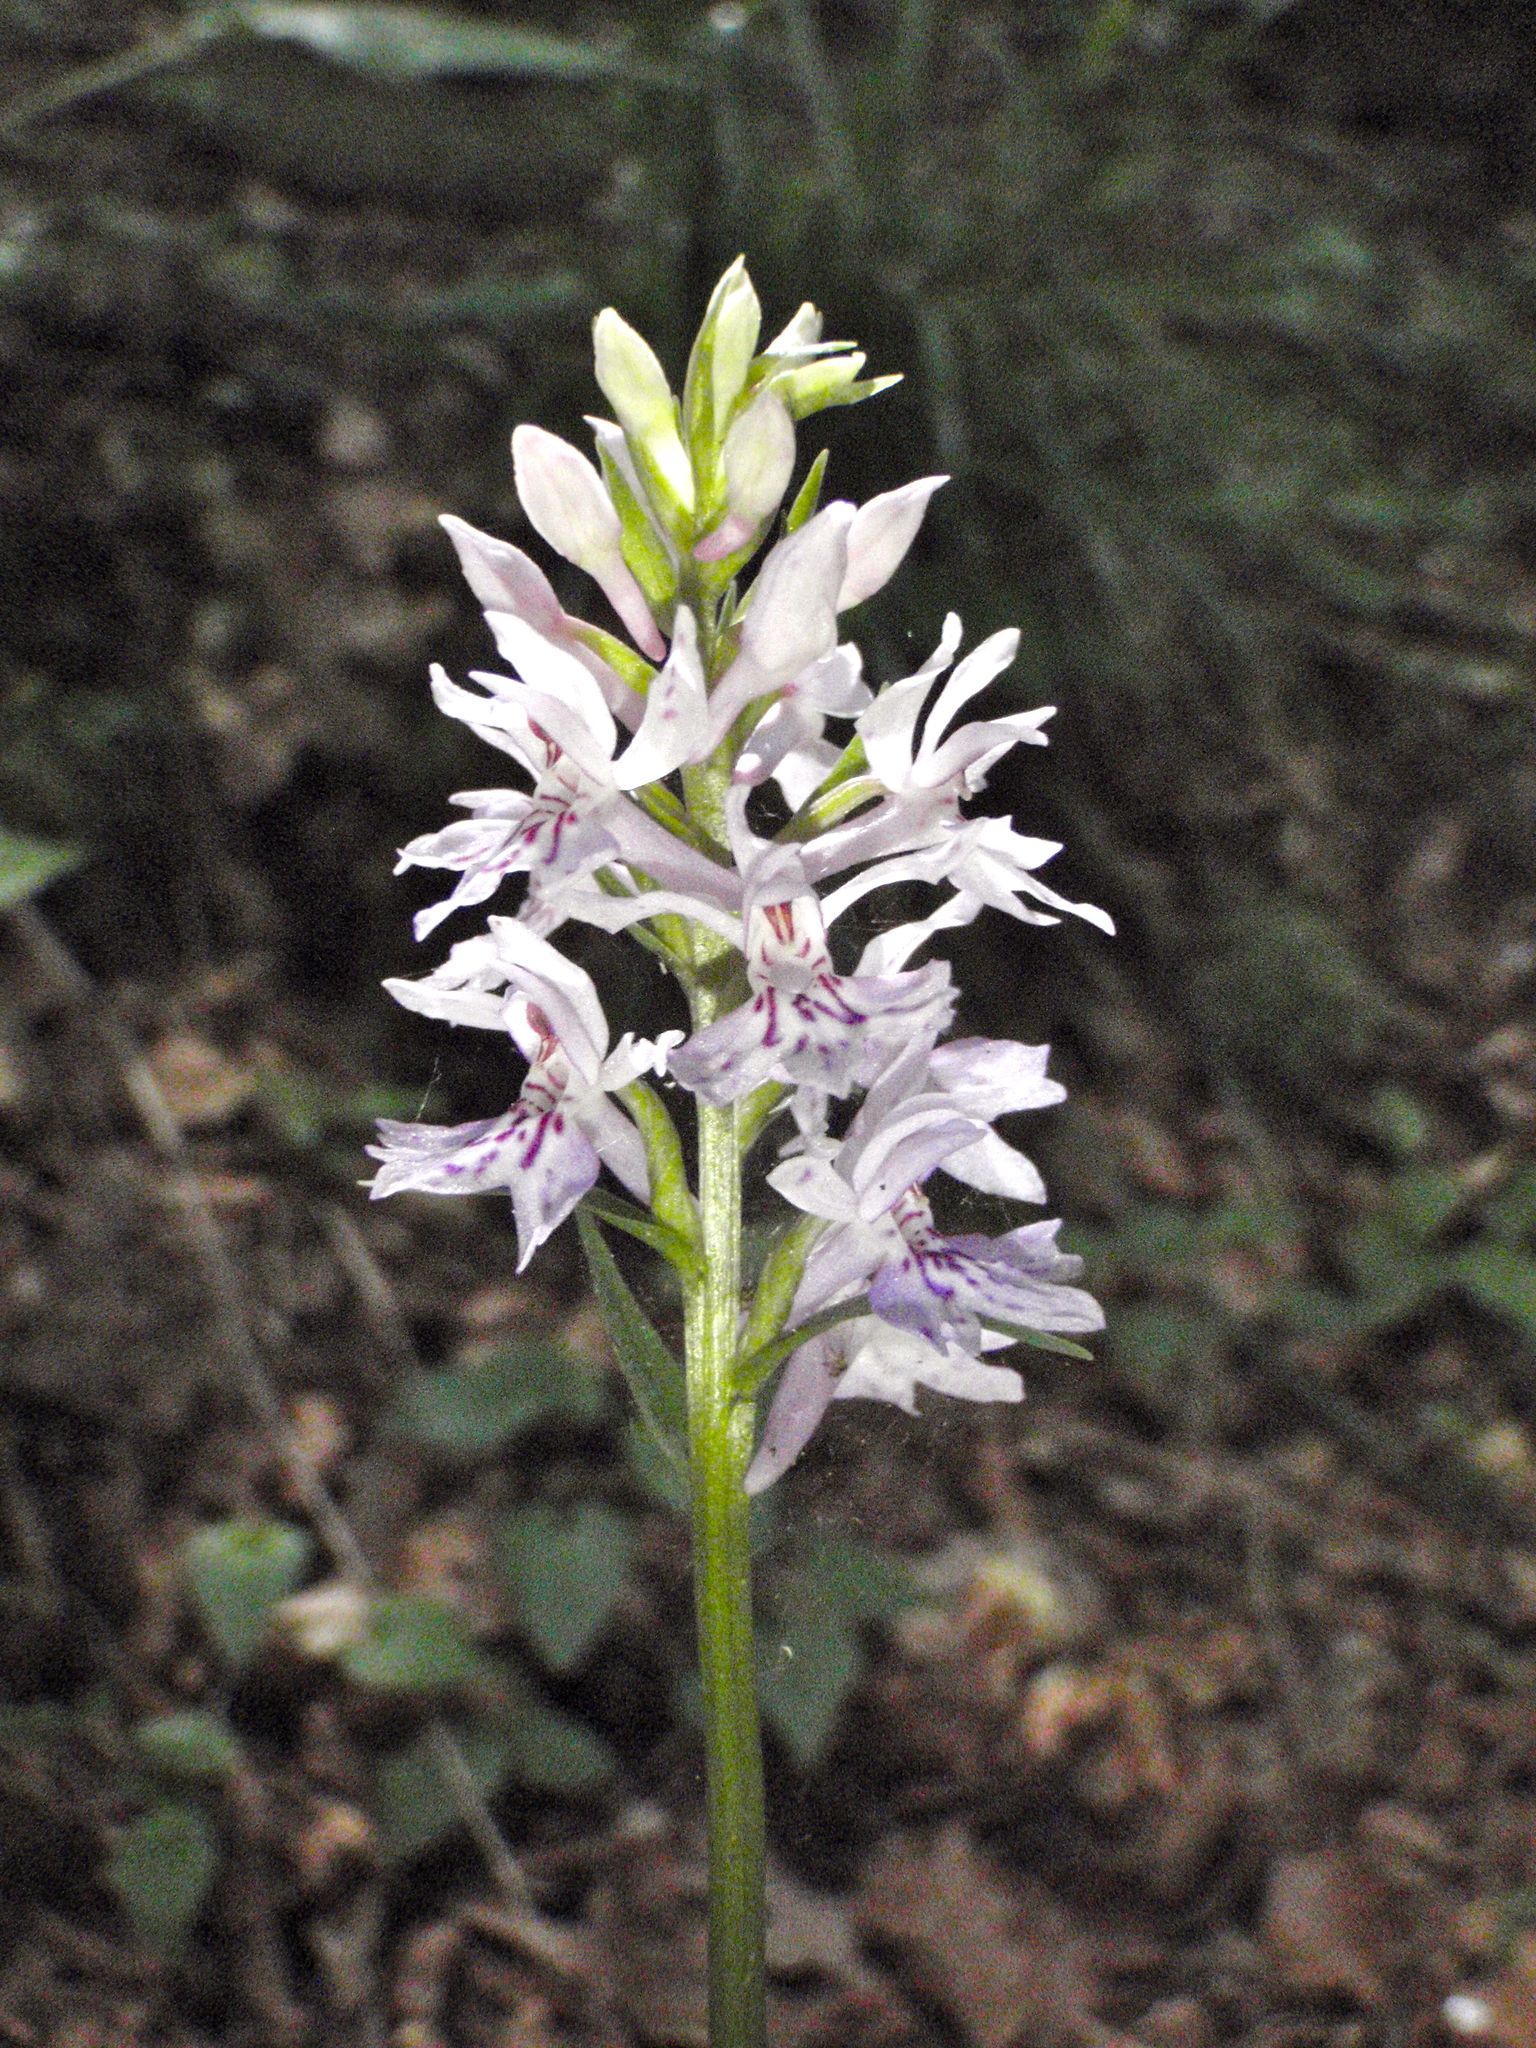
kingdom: Plantae
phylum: Tracheophyta
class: Liliopsida
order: Asparagales
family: Orchidaceae
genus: Dactylorhiza
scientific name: Dactylorhiza maculata
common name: Heath spotted-orchid
